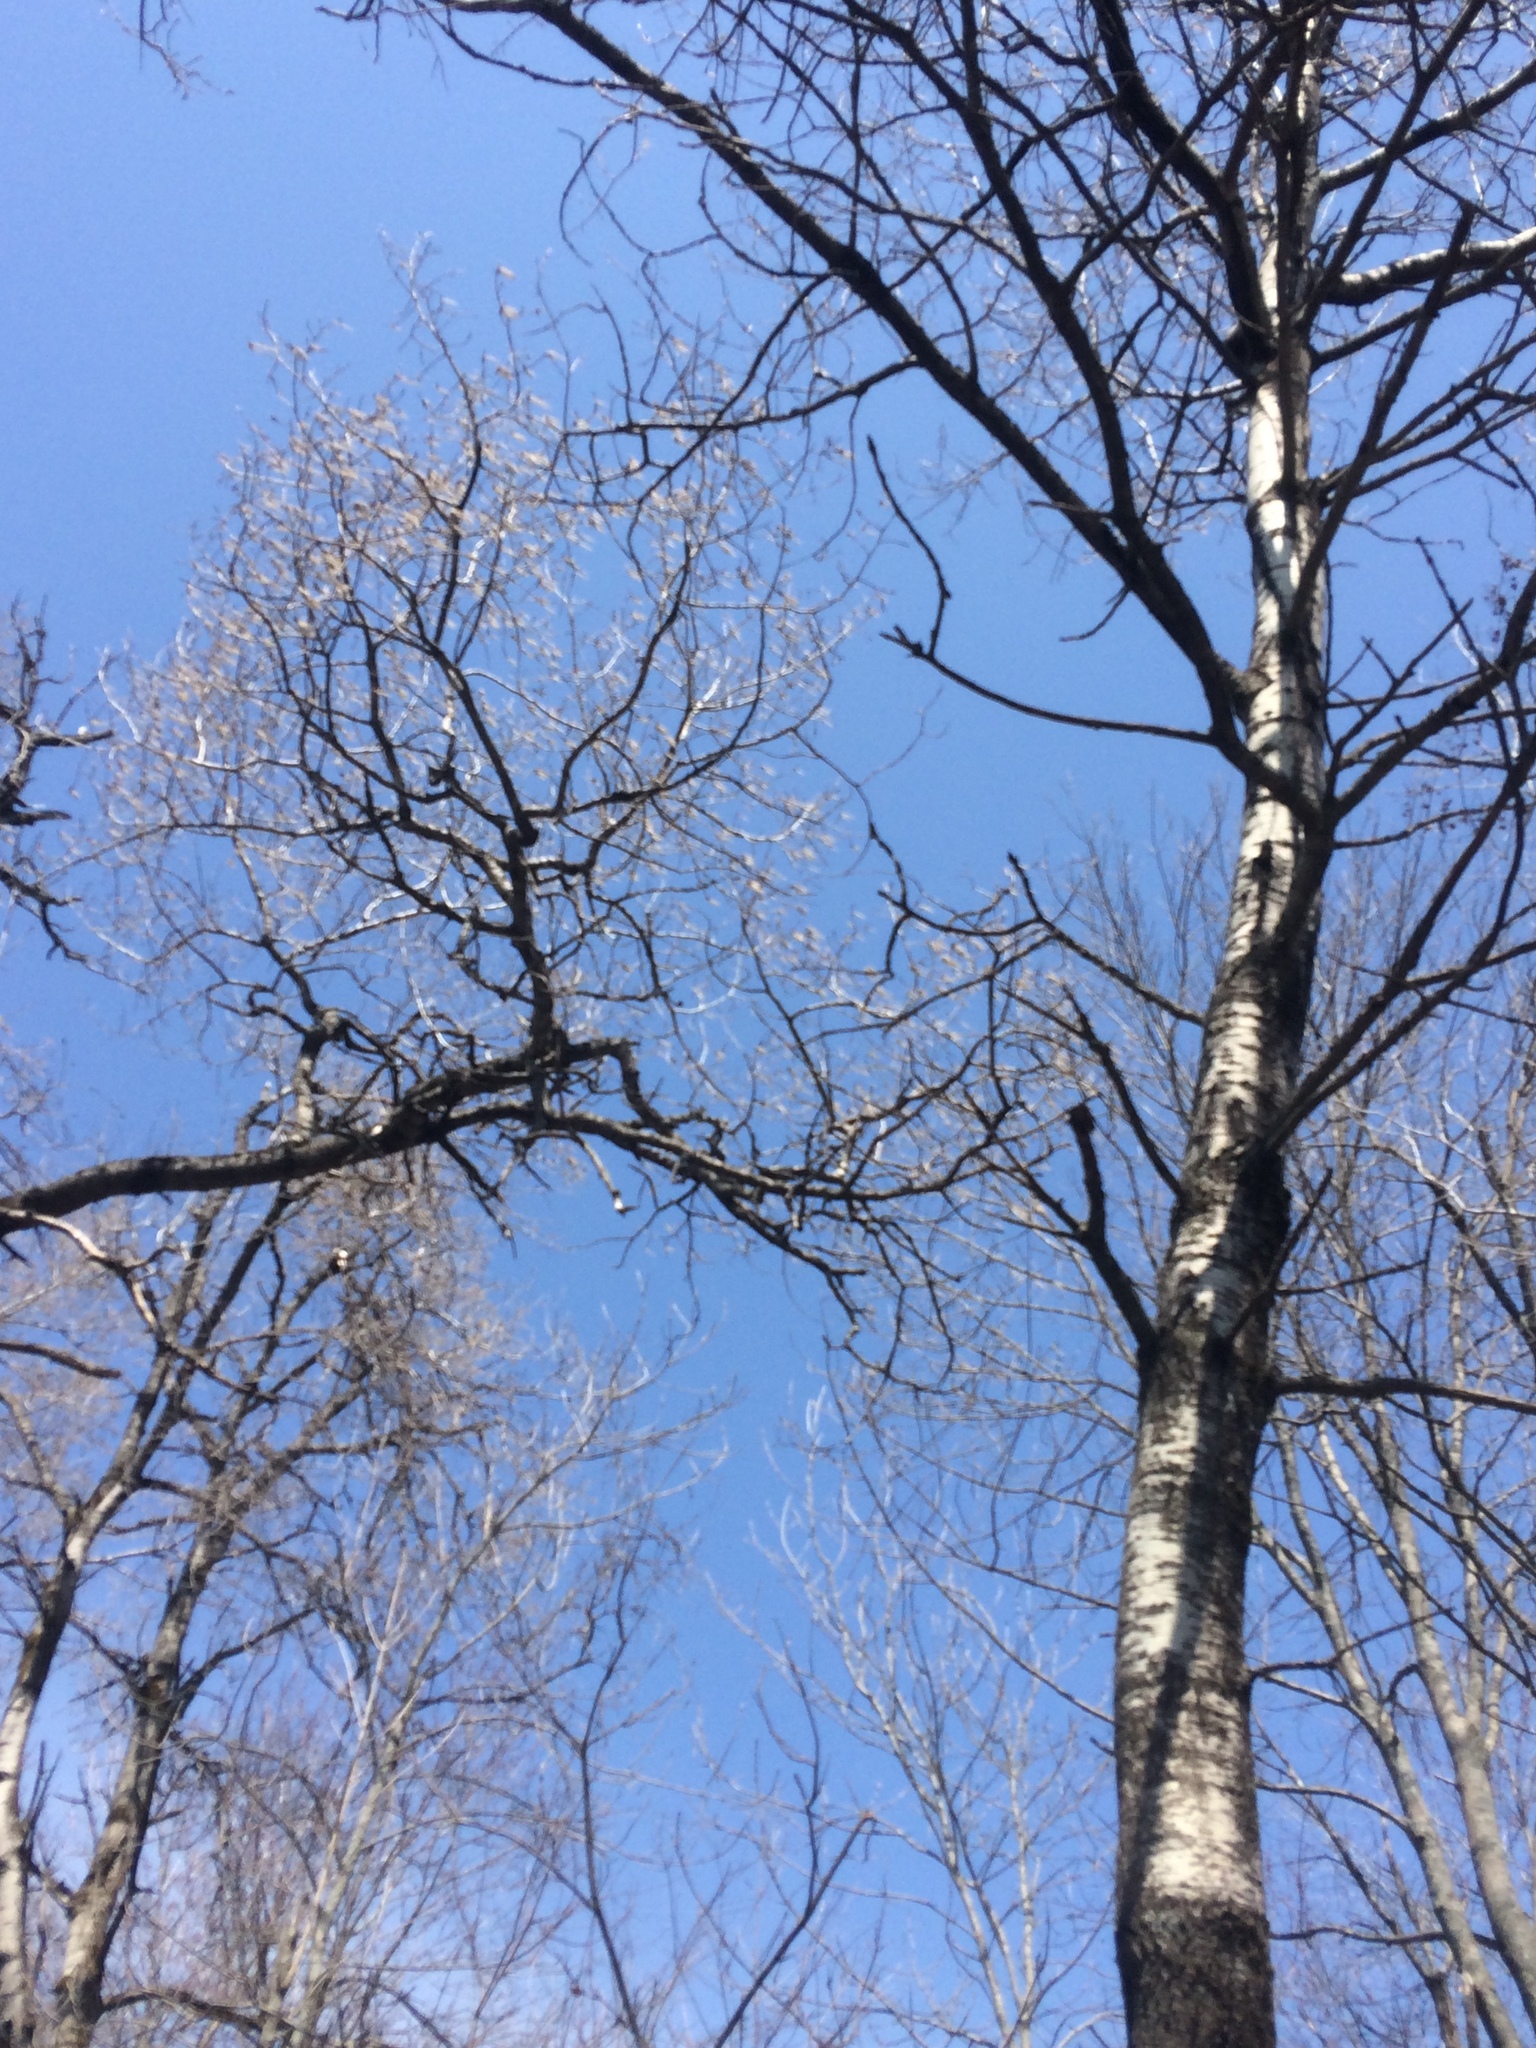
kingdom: Plantae
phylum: Tracheophyta
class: Magnoliopsida
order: Malpighiales
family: Salicaceae
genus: Populus
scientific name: Populus tremuloides
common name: Quaking aspen
